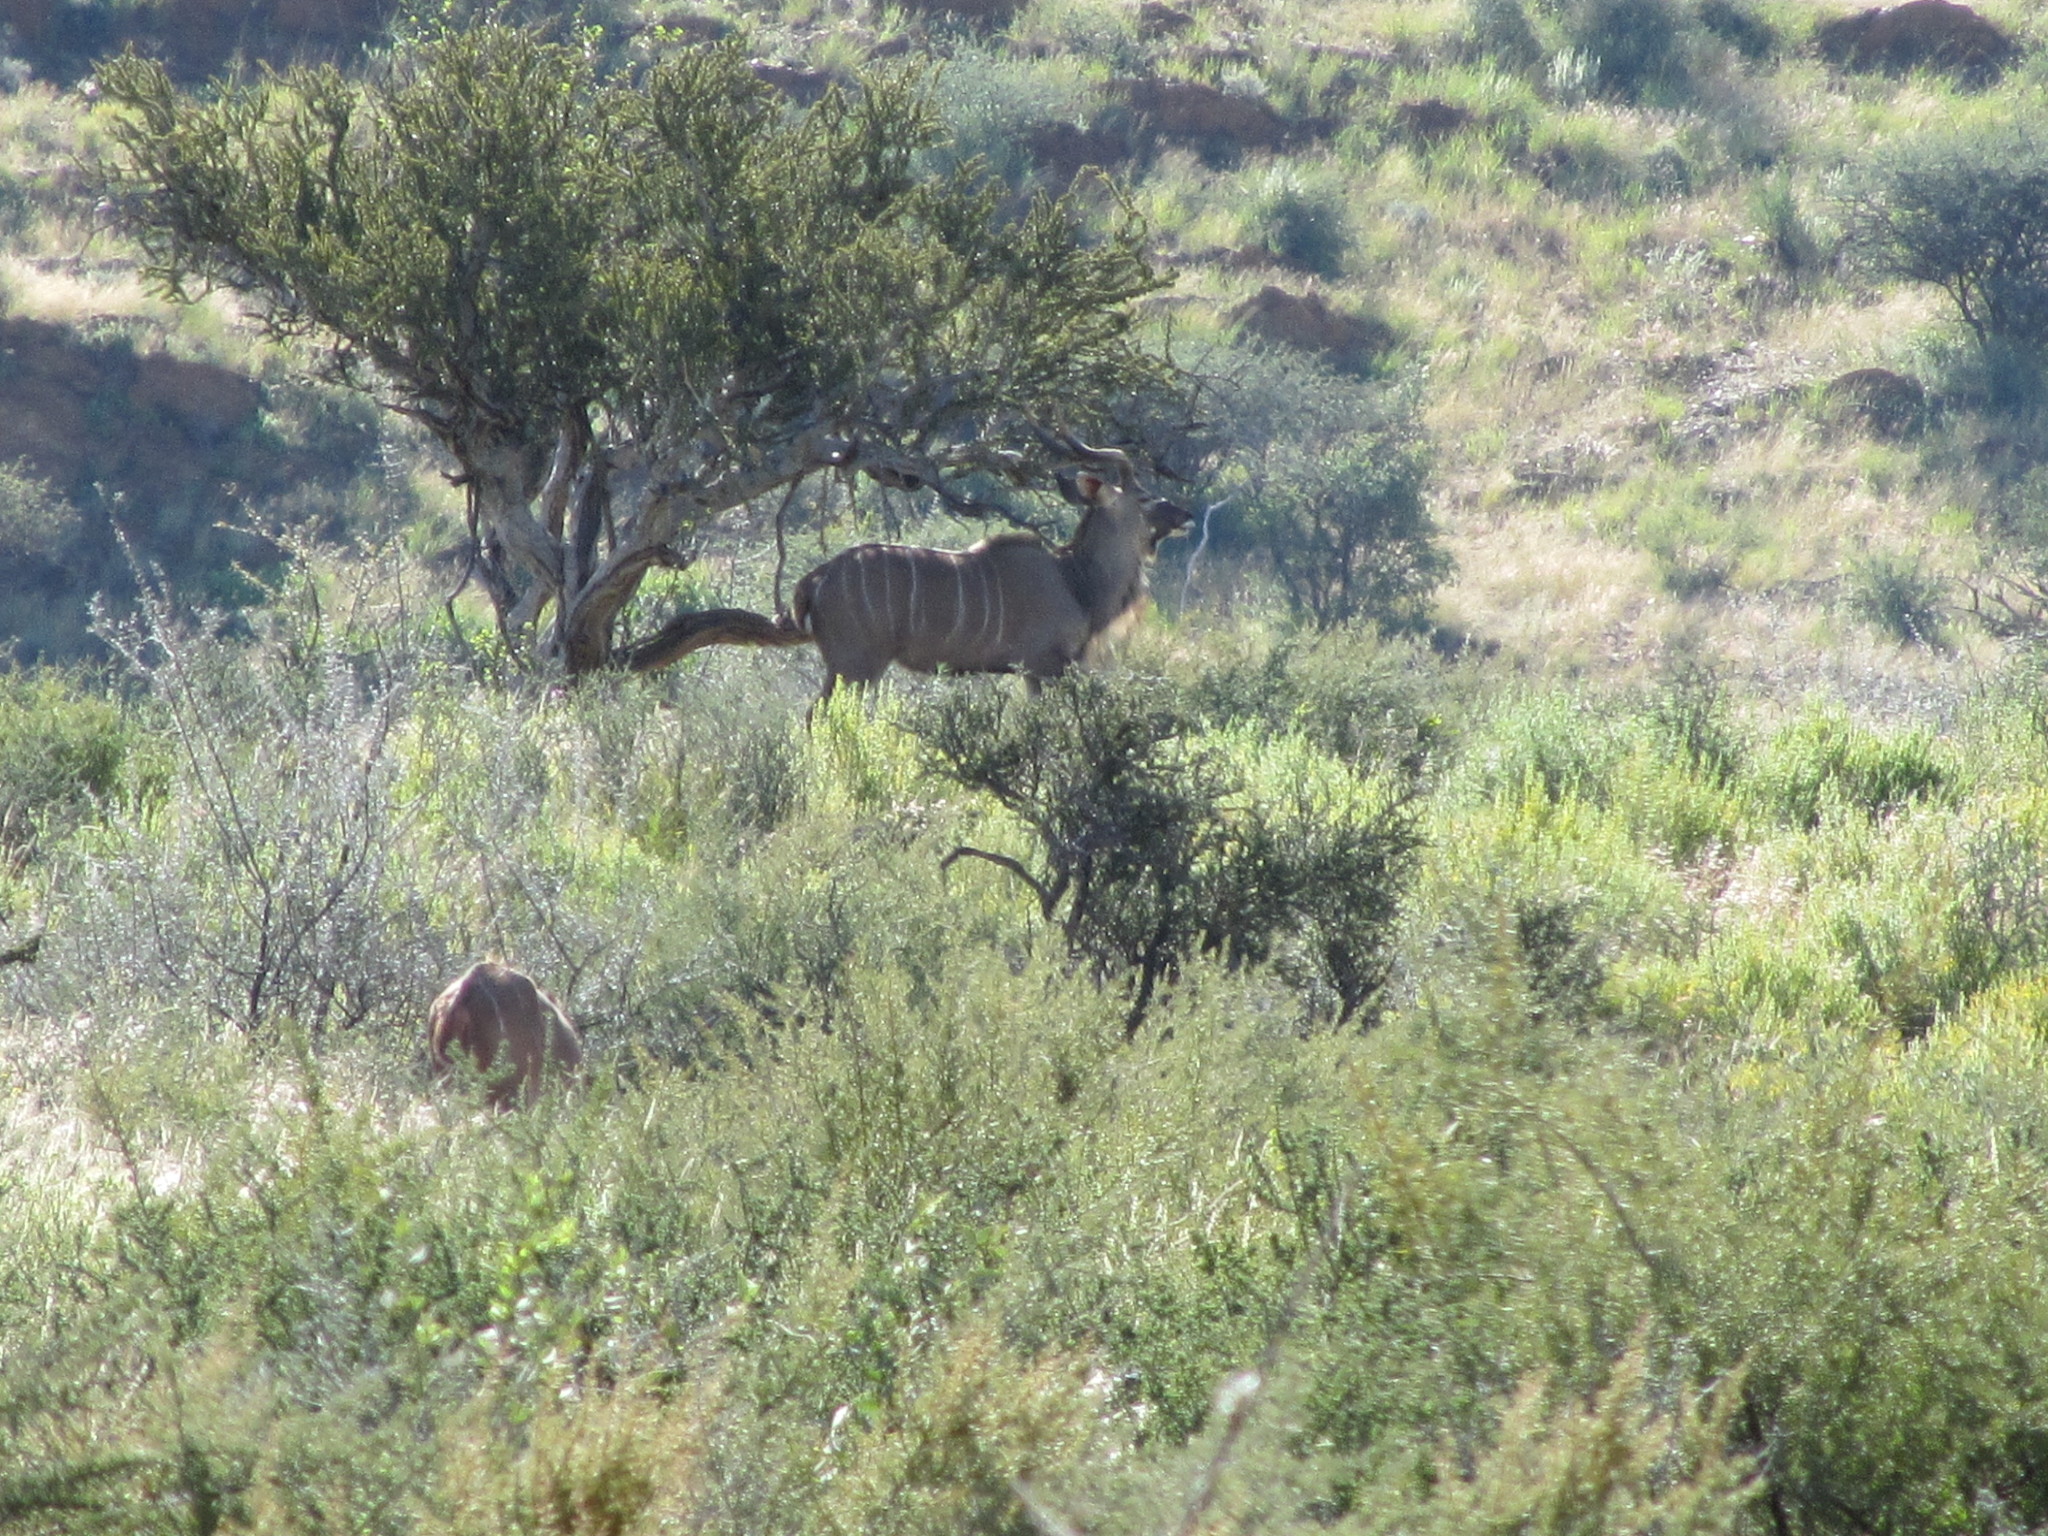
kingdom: Animalia
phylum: Chordata
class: Mammalia
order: Artiodactyla
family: Bovidae
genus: Tragelaphus
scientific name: Tragelaphus strepsiceros
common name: Greater kudu
